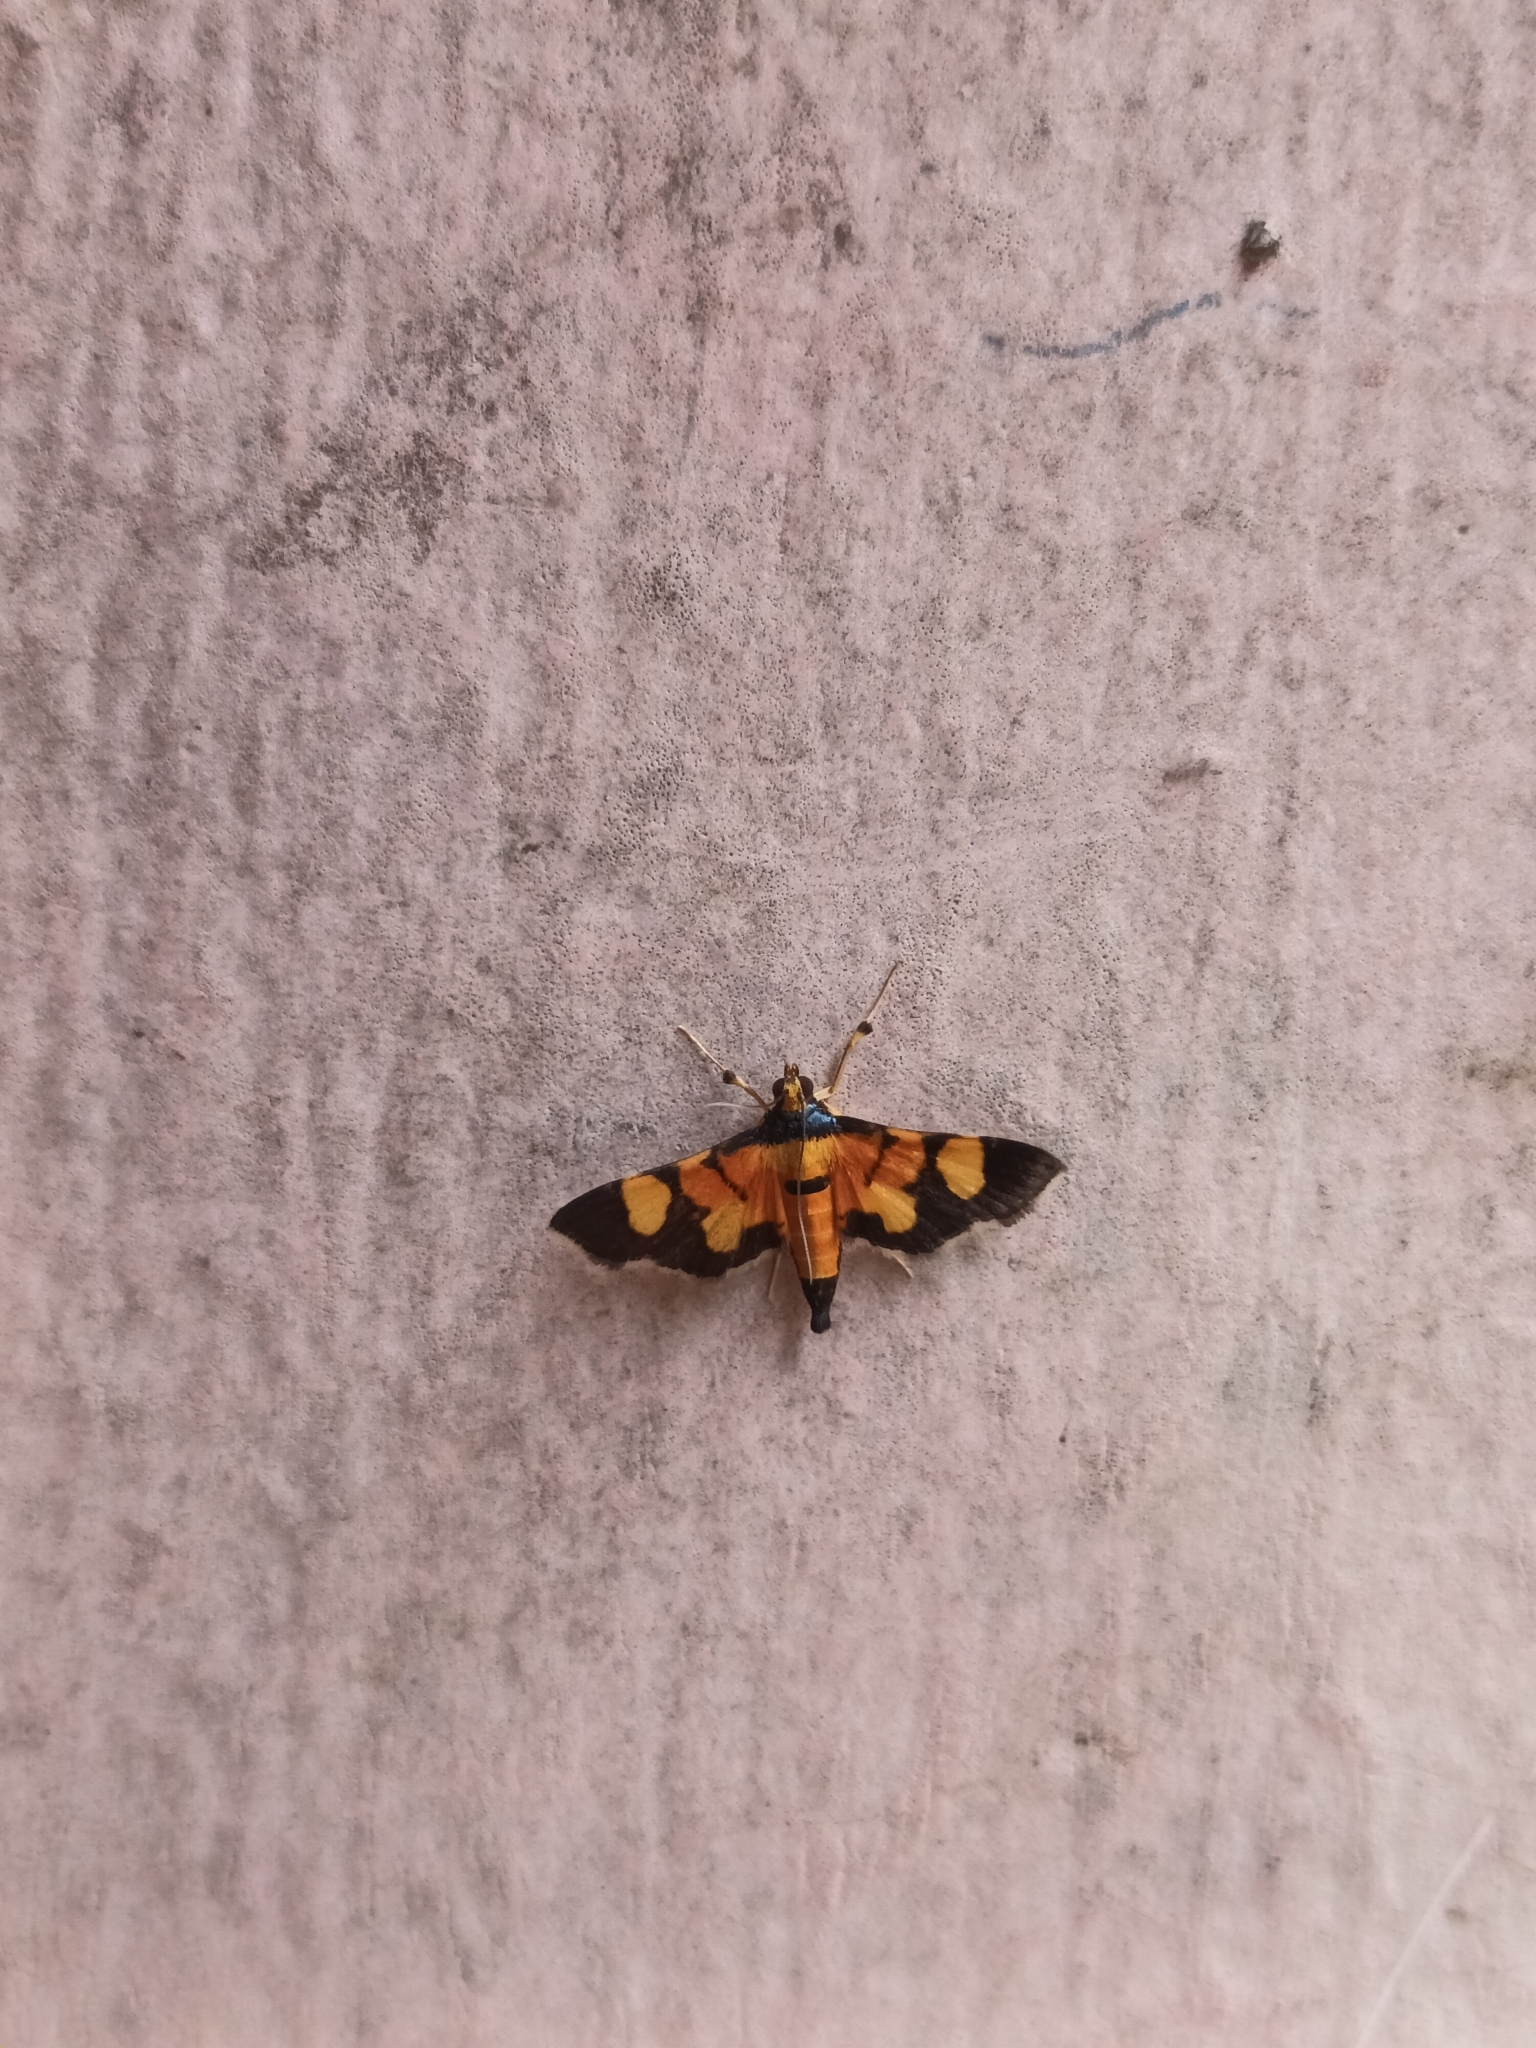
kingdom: Animalia
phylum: Arthropoda
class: Insecta
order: Lepidoptera
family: Crambidae
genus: Aethaloessa
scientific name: Aethaloessa calidalis
